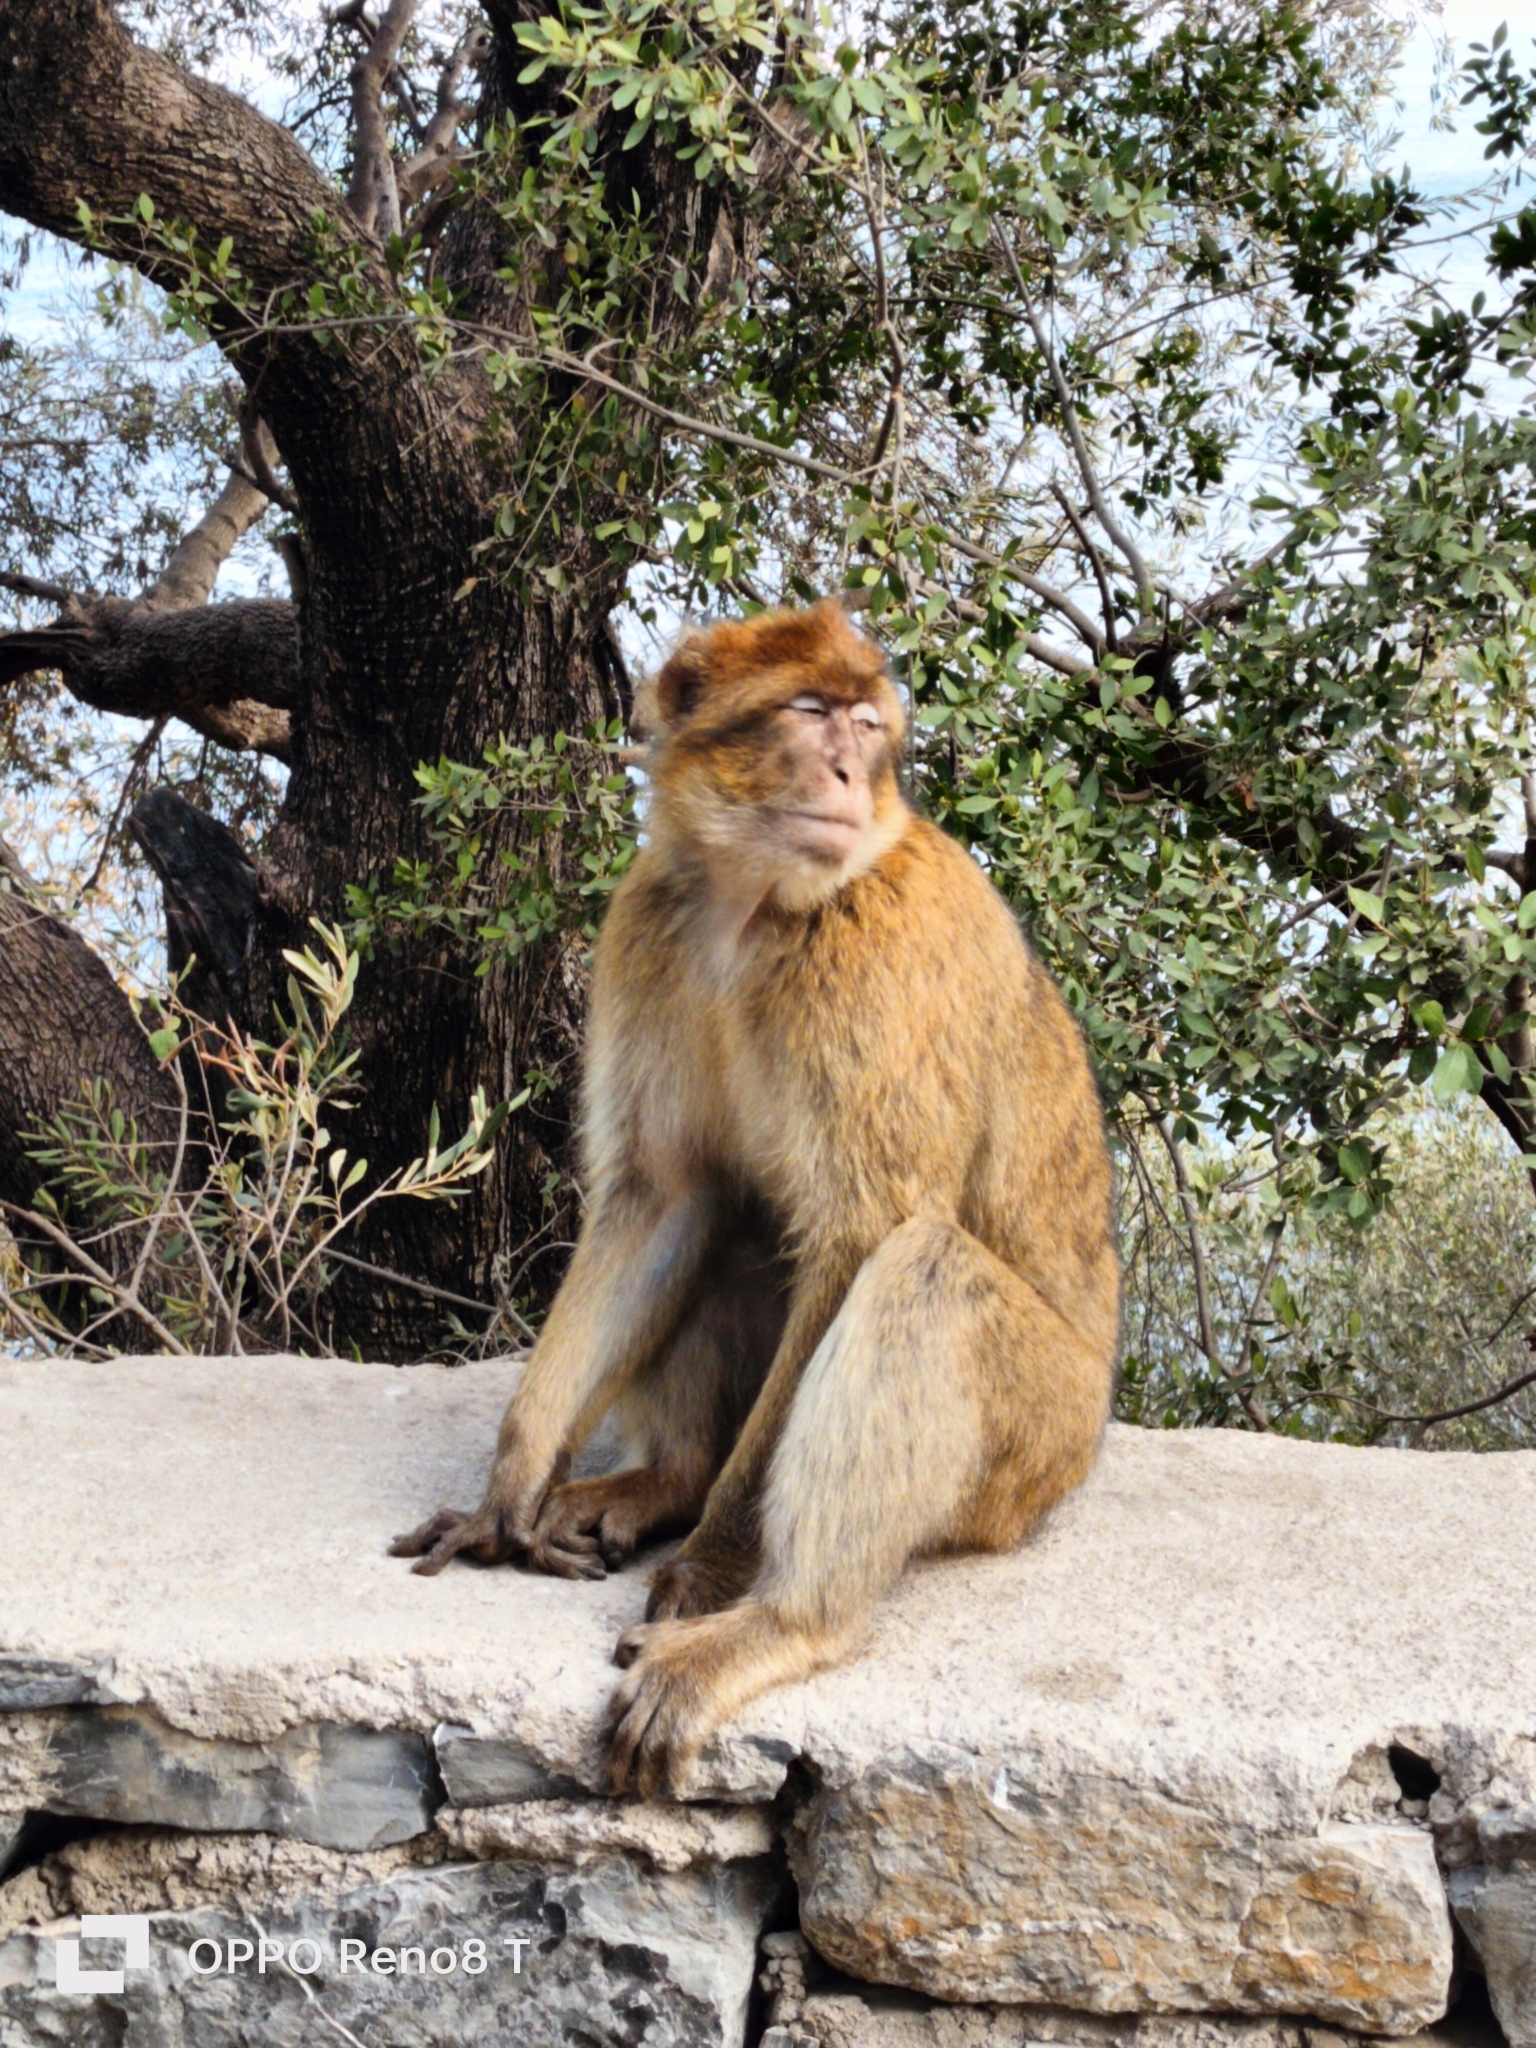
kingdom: Animalia
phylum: Chordata
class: Mammalia
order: Primates
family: Cercopithecidae
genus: Macaca
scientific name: Macaca sylvanus
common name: Barbary macaque
